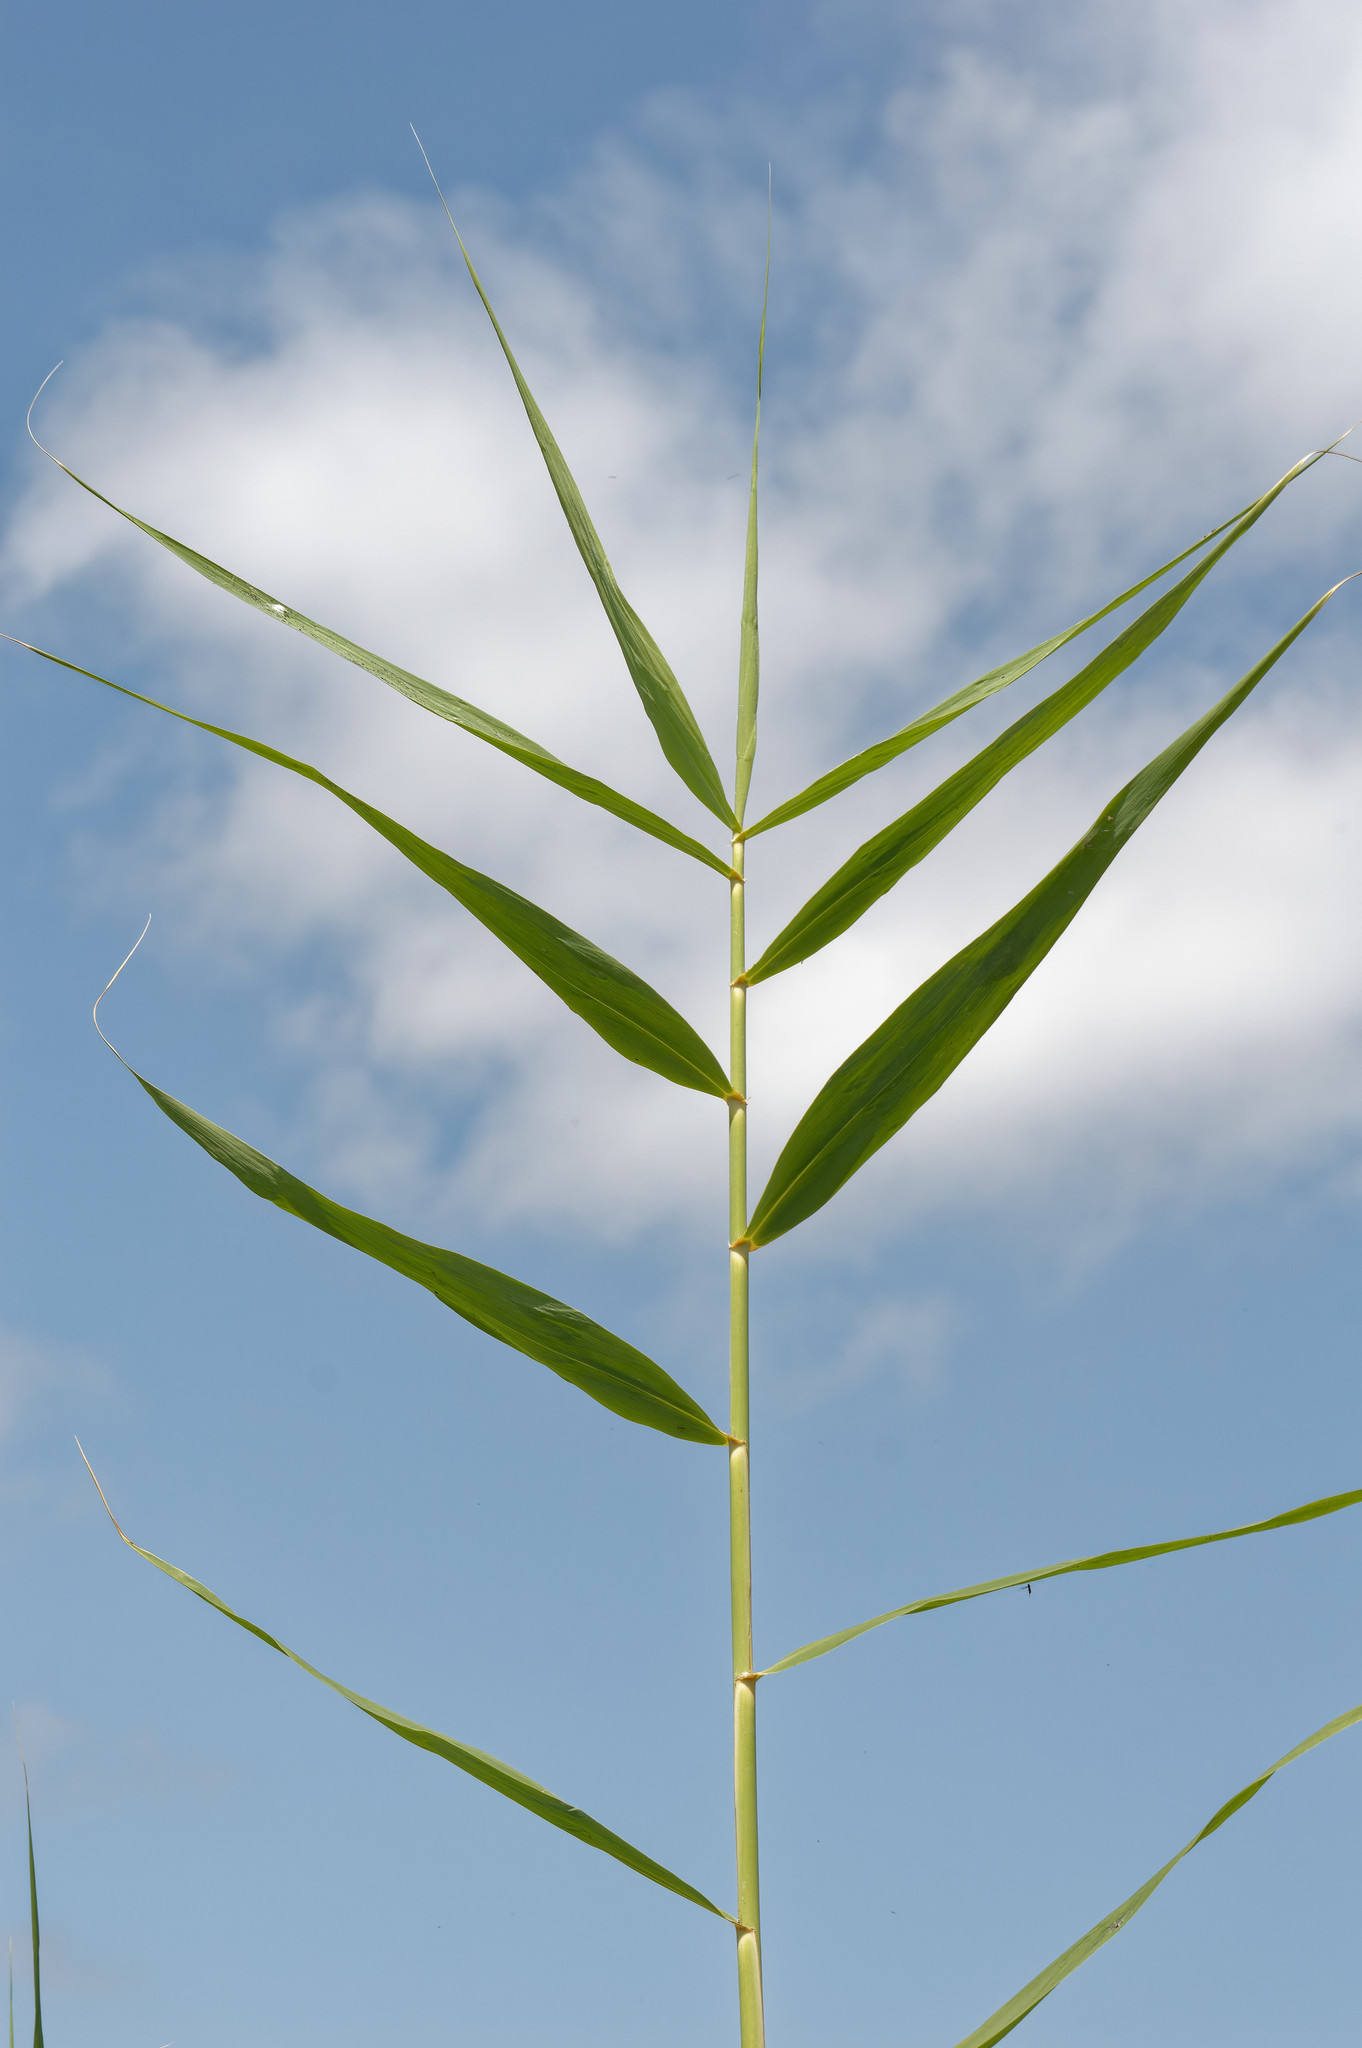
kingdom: Plantae
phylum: Tracheophyta
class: Liliopsida
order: Poales
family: Poaceae
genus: Arundo
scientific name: Arundo donax
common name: Giant reed
